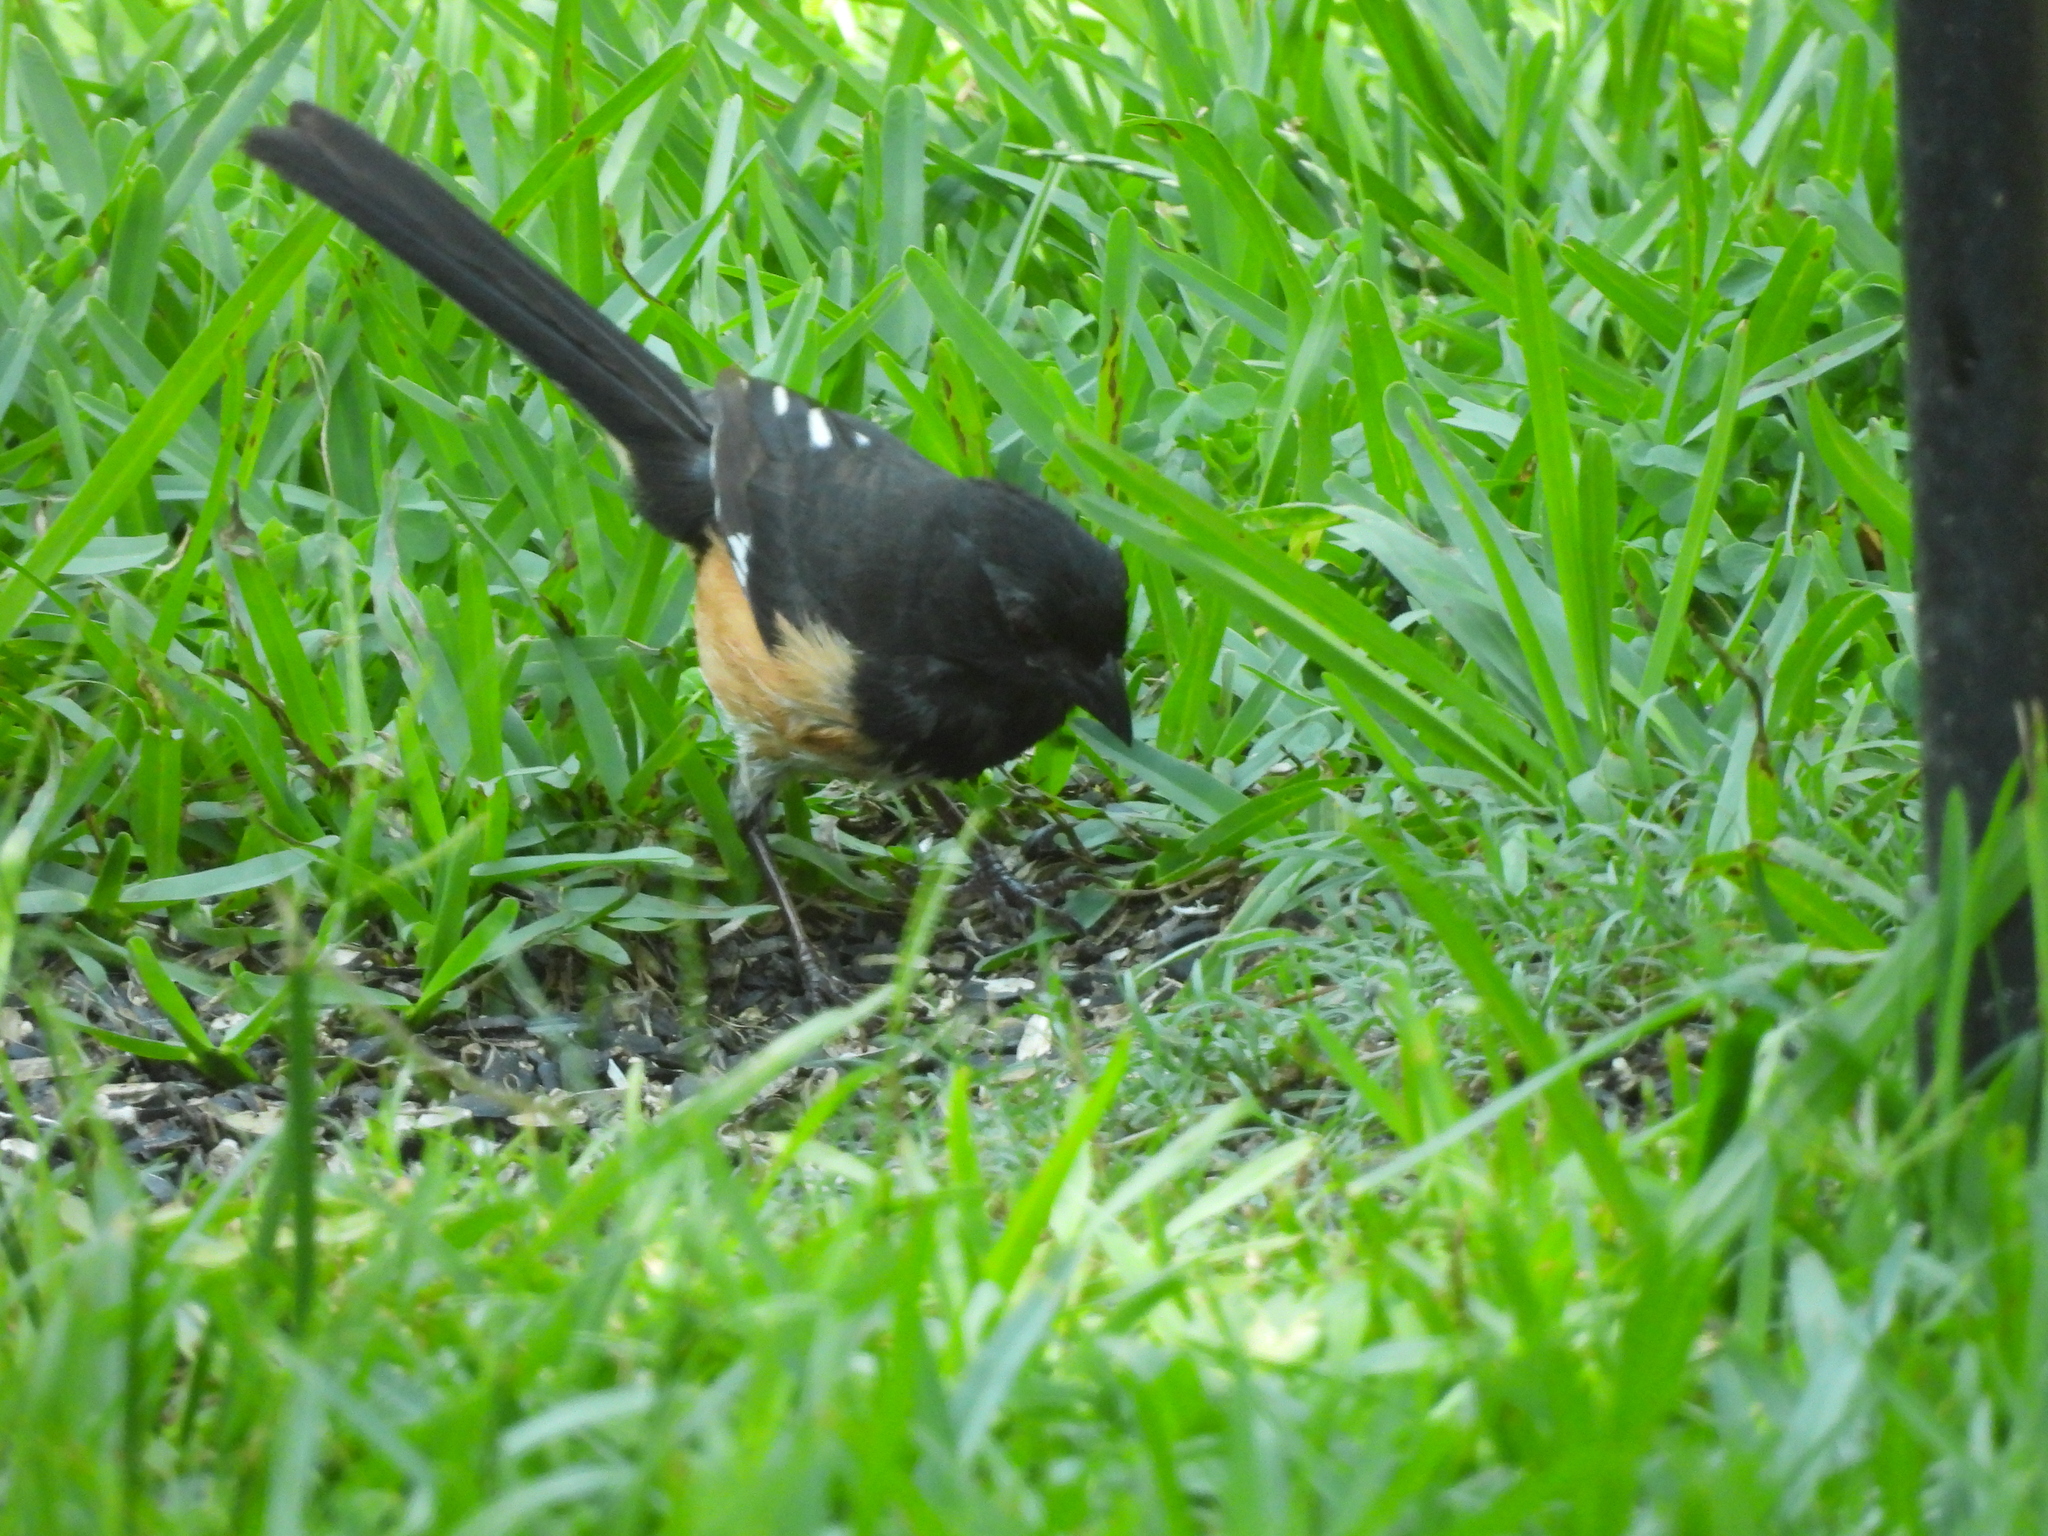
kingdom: Animalia
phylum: Chordata
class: Aves
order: Passeriformes
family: Passerellidae
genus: Pipilo
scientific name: Pipilo erythrophthalmus
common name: Eastern towhee
